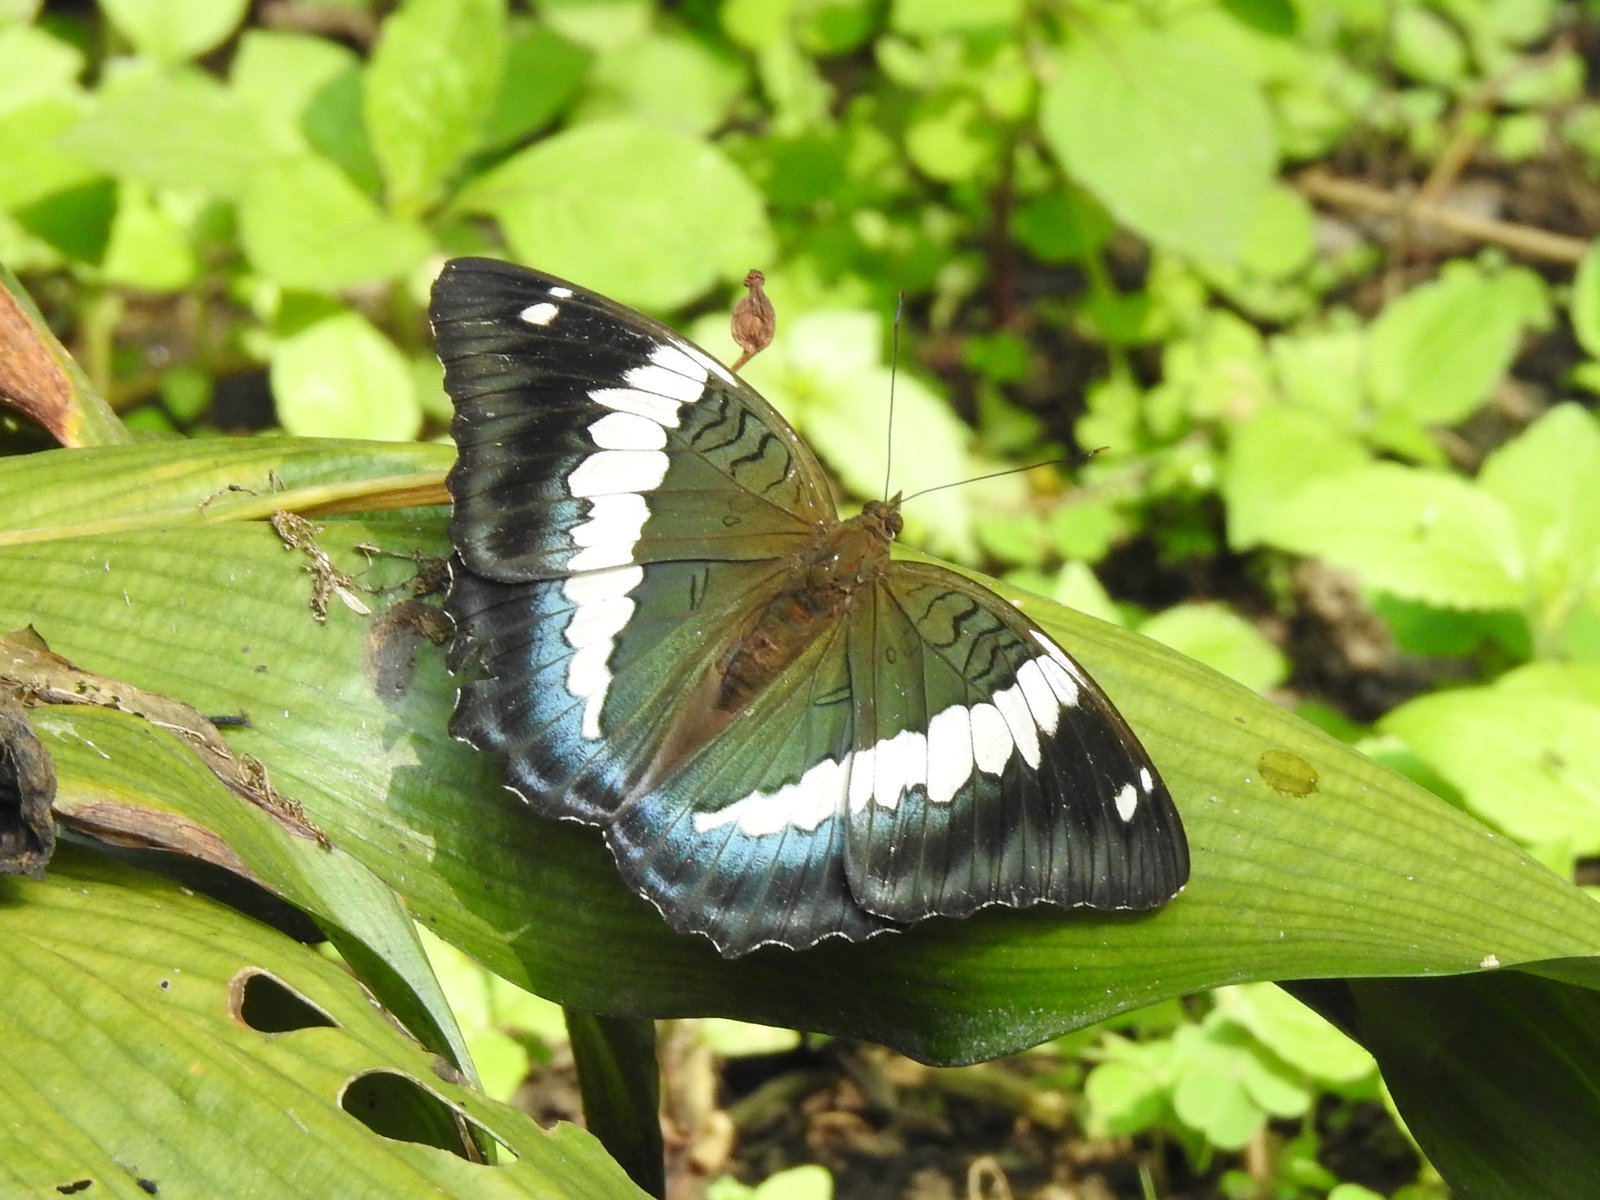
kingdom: Animalia
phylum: Arthropoda
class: Insecta
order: Lepidoptera
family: Nymphalidae
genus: Euthalia
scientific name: Euthalia durga
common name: Blue duke
